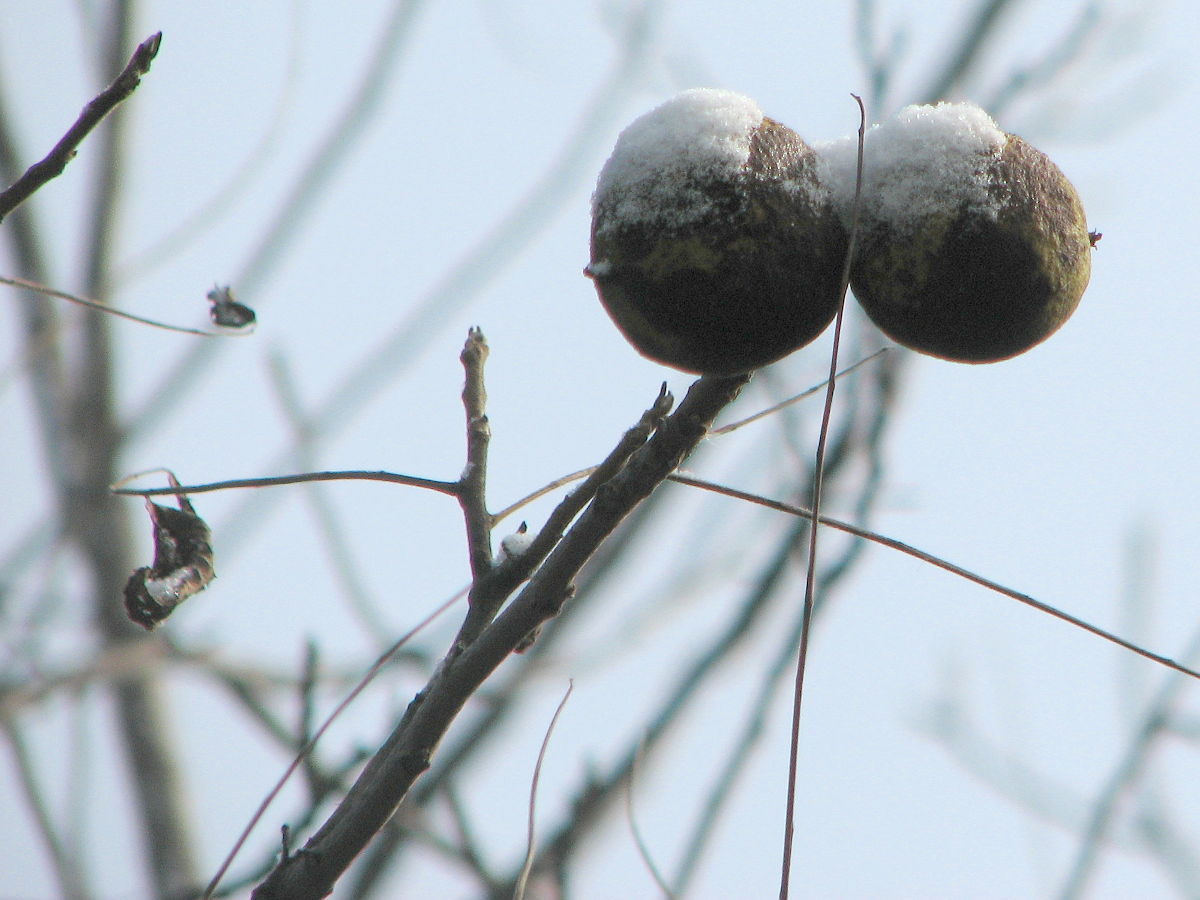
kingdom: Plantae
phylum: Tracheophyta
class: Magnoliopsida
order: Fagales
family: Juglandaceae
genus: Juglans
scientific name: Juglans nigra
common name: Black walnut
